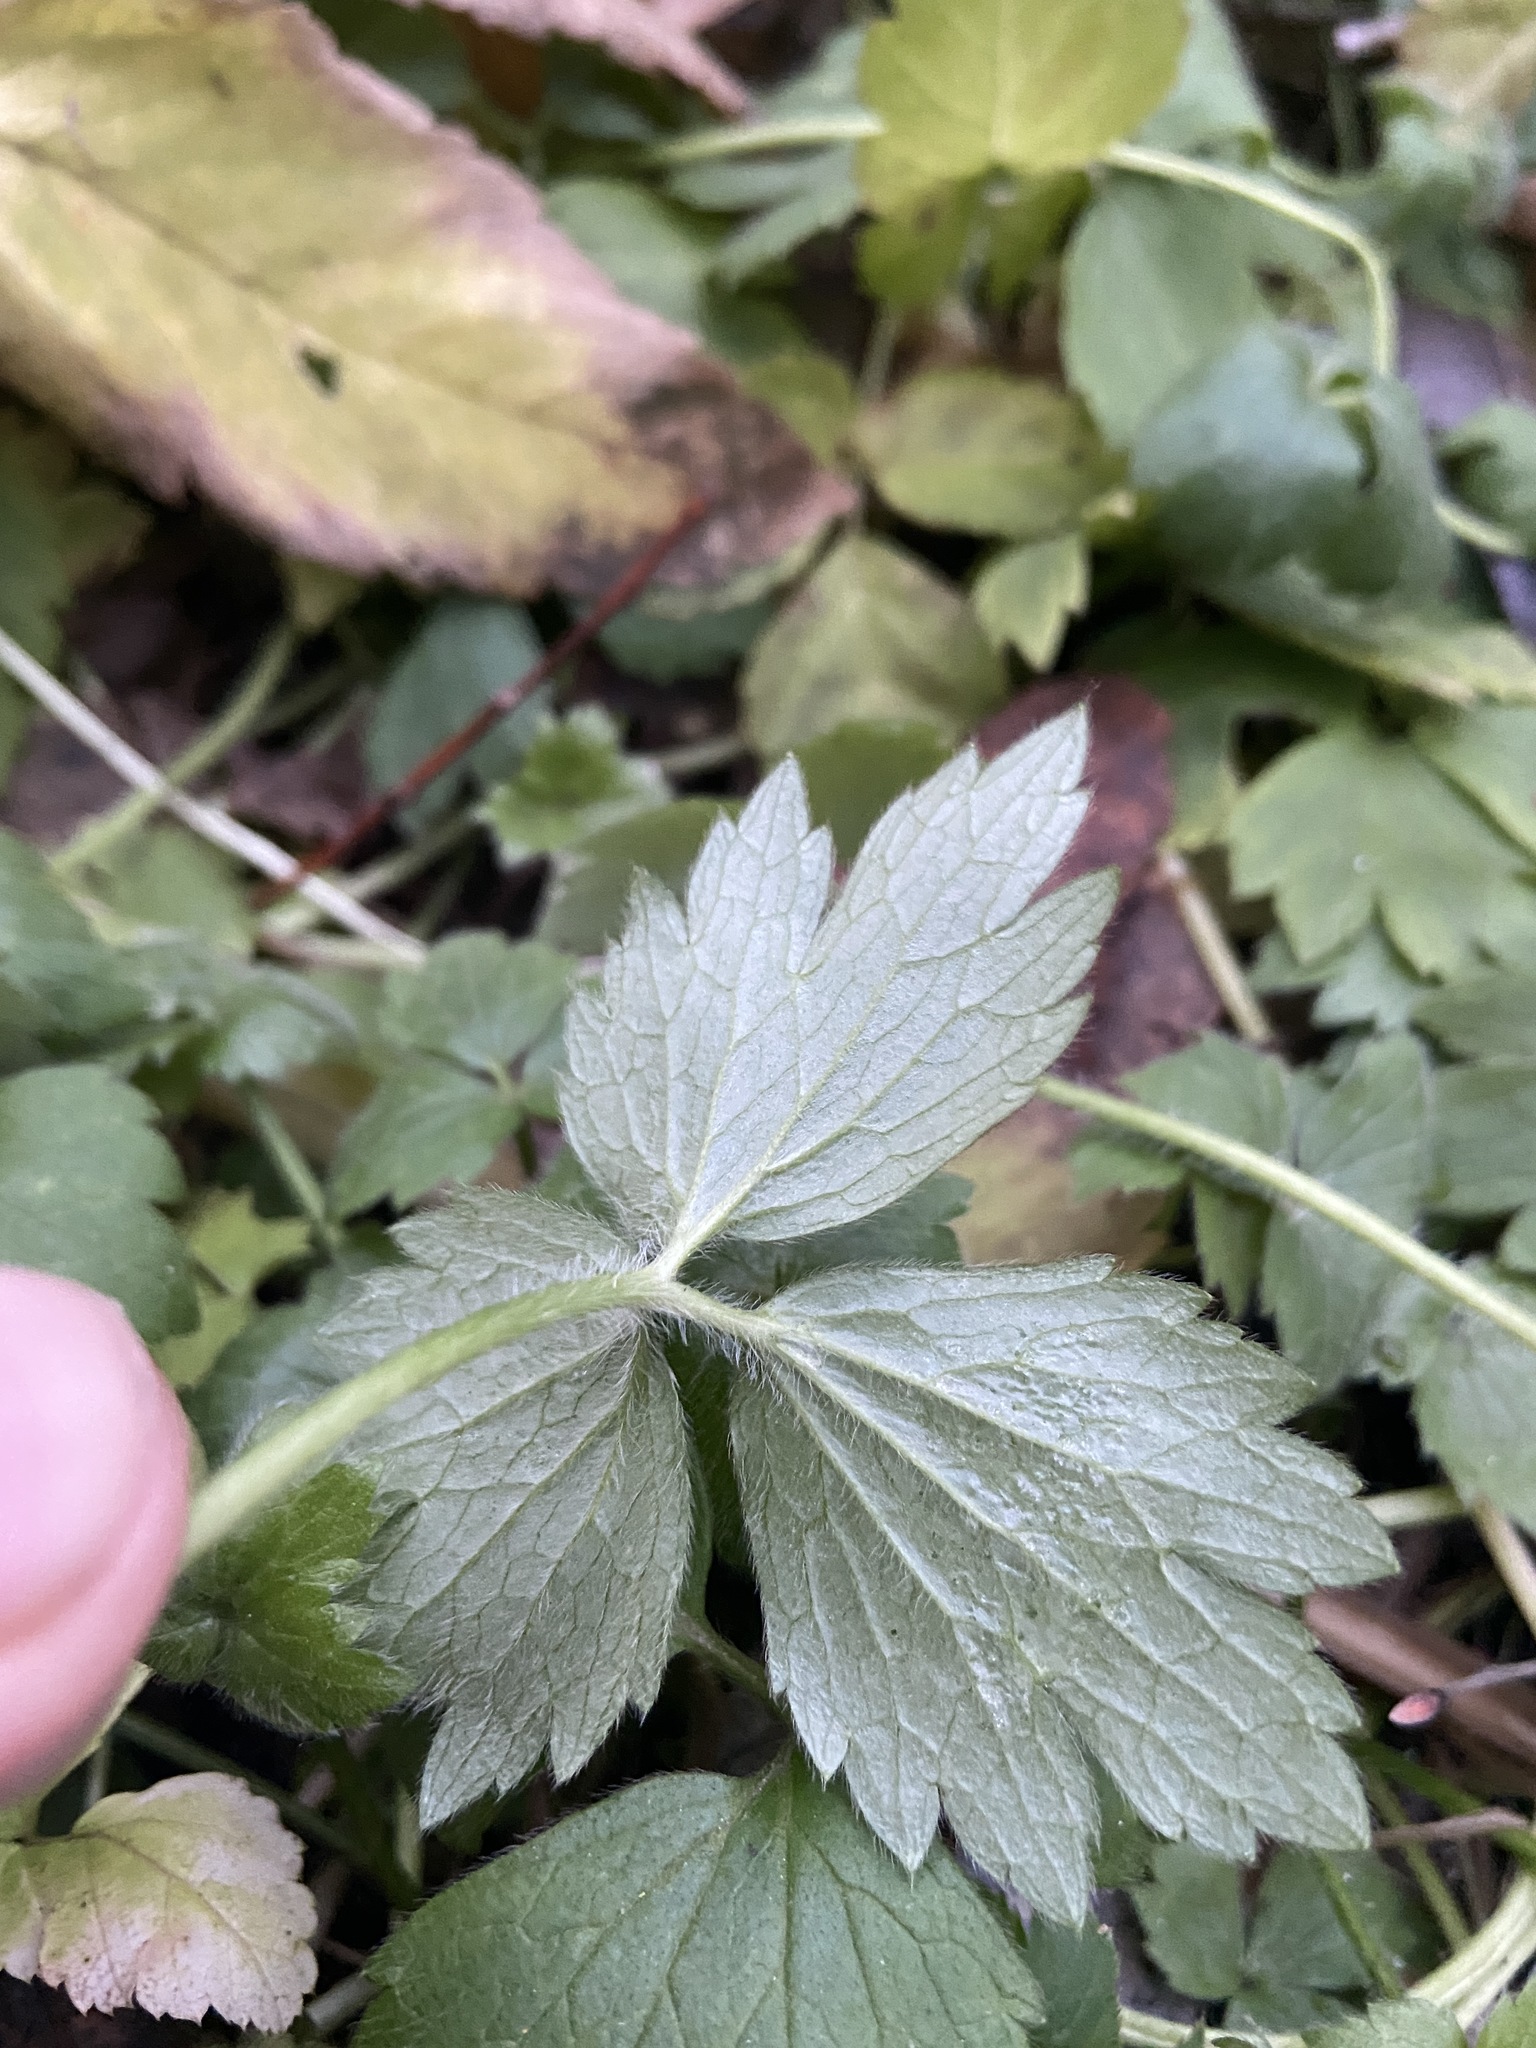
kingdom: Plantae
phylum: Tracheophyta
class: Magnoliopsida
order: Ranunculales
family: Ranunculaceae
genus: Ranunculus
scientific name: Ranunculus repens
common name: Creeping buttercup
